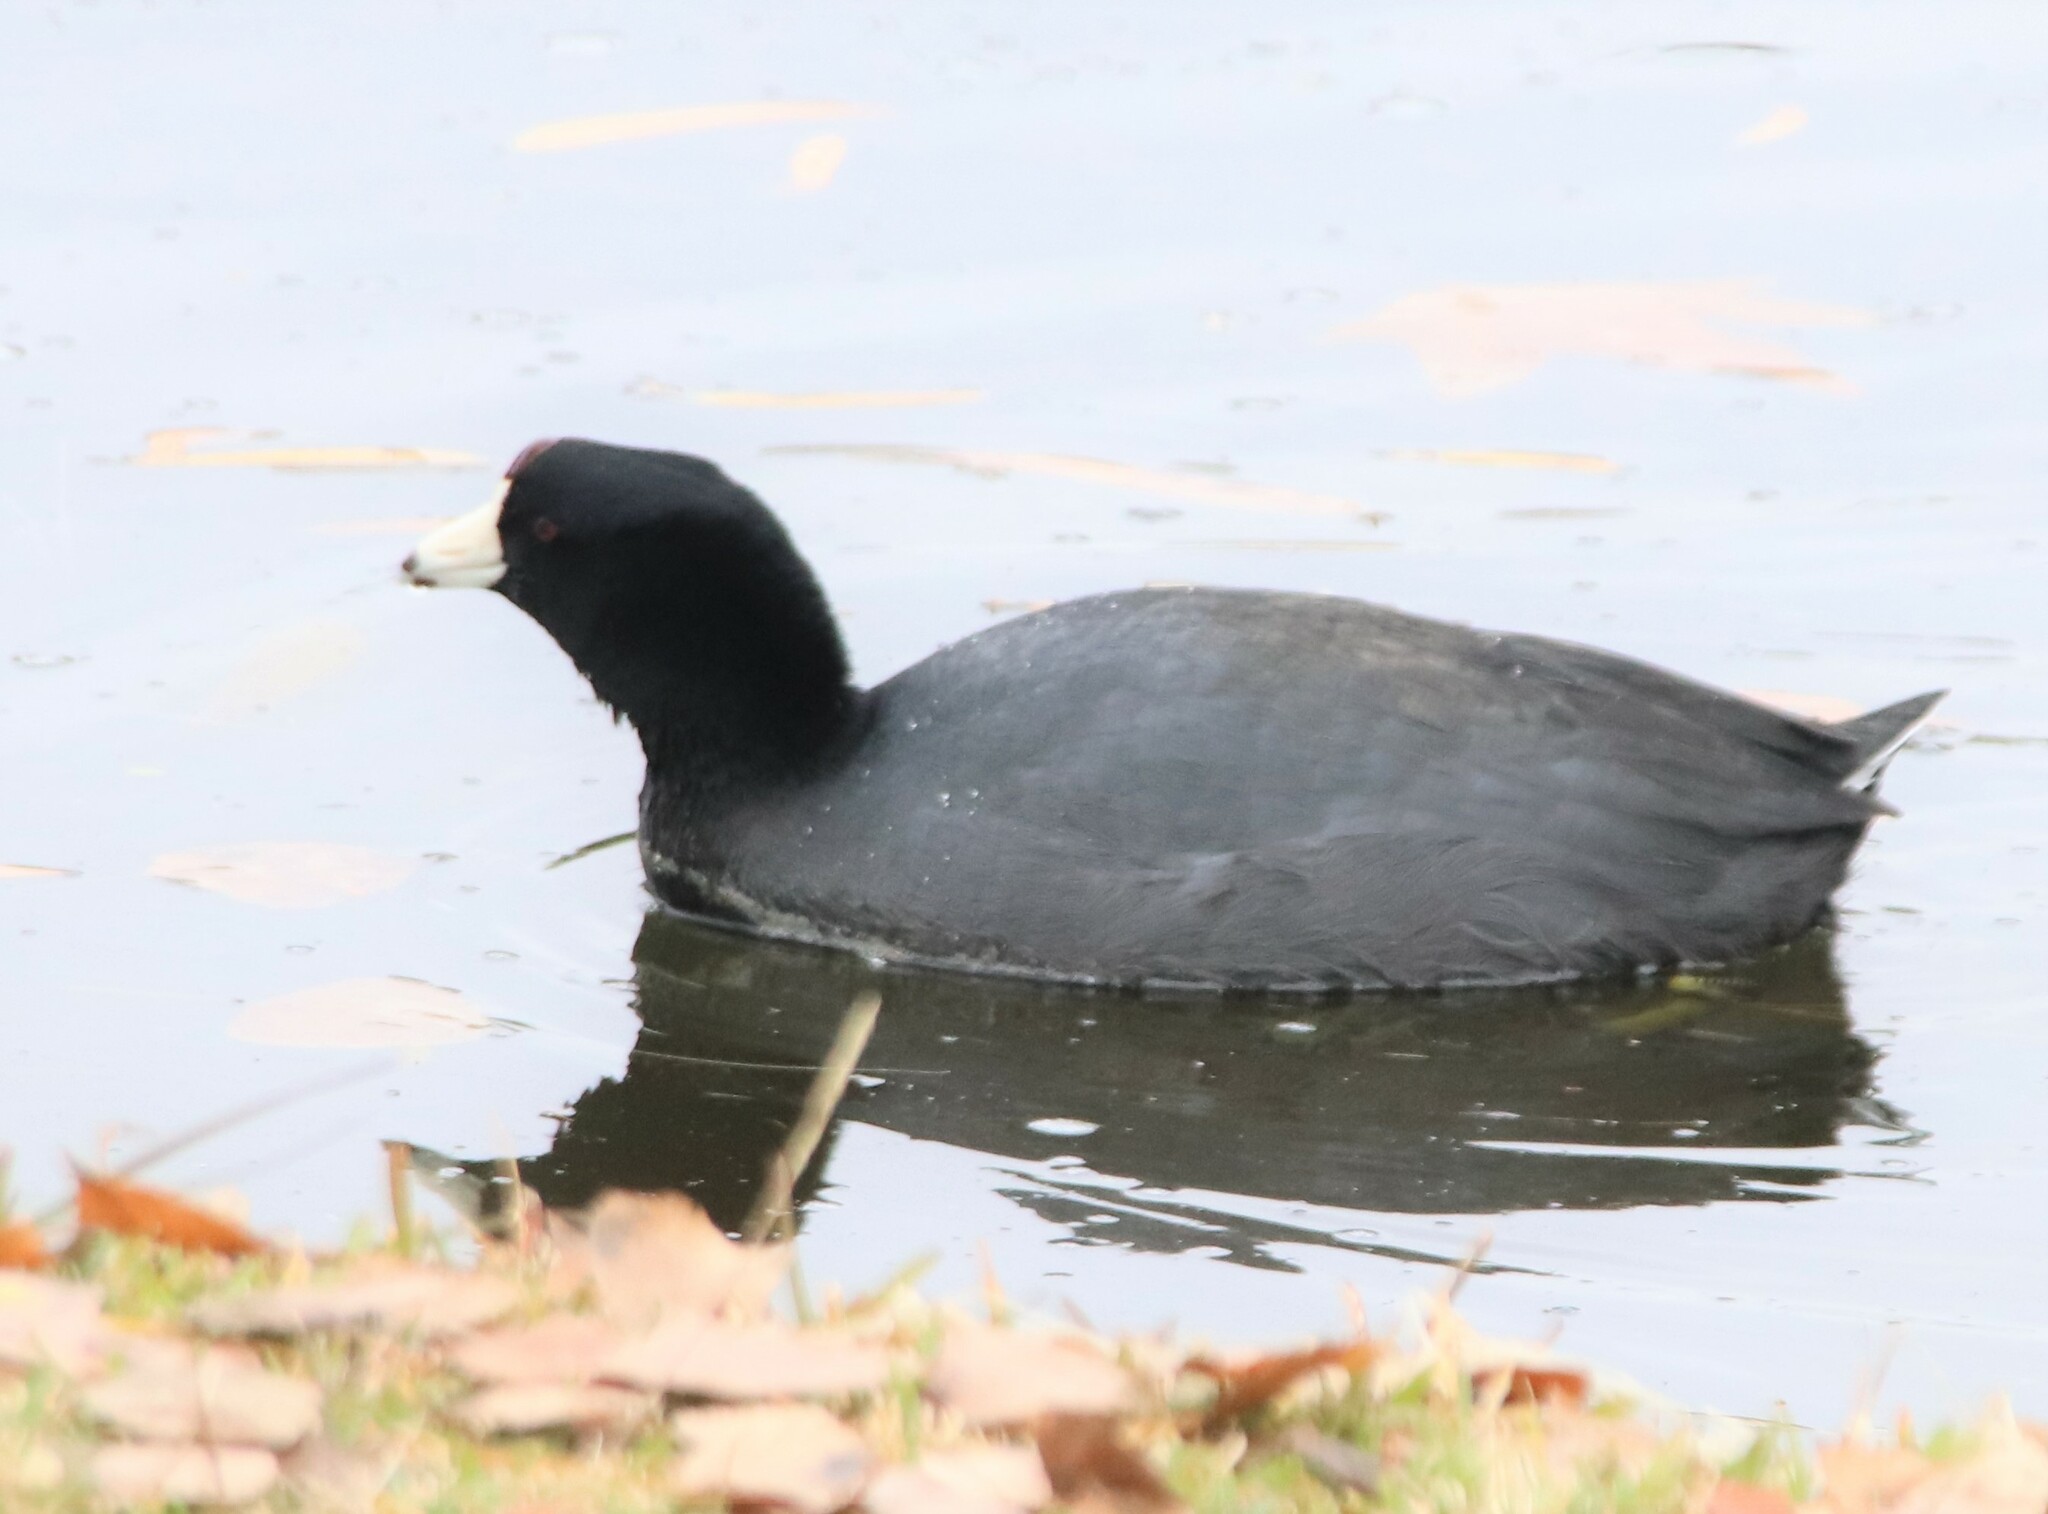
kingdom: Animalia
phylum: Chordata
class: Aves
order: Gruiformes
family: Rallidae
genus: Fulica
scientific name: Fulica americana
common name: American coot
